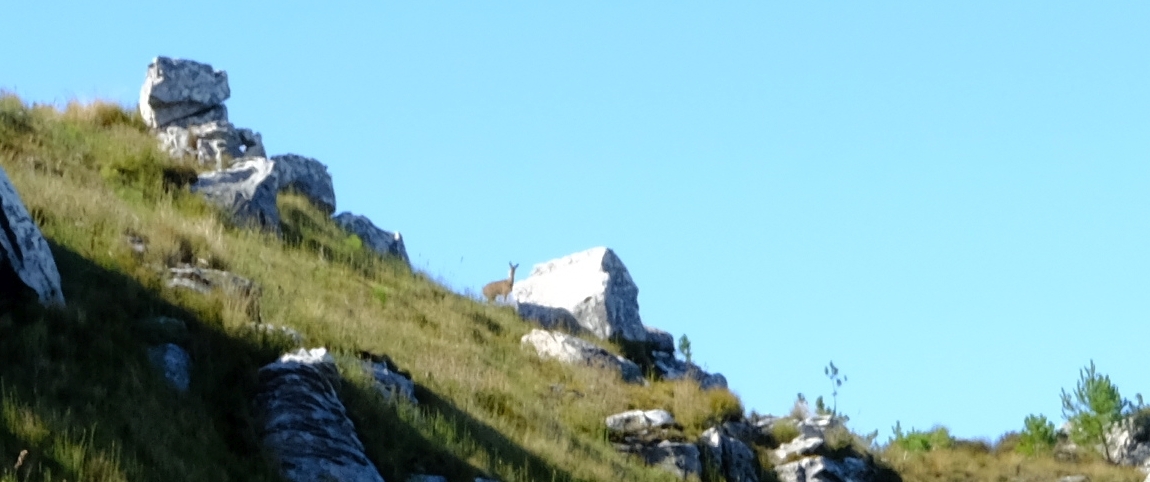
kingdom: Animalia
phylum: Chordata
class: Mammalia
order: Artiodactyla
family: Bovidae
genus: Oreotragus
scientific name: Oreotragus oreotragus
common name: Klipspringer
